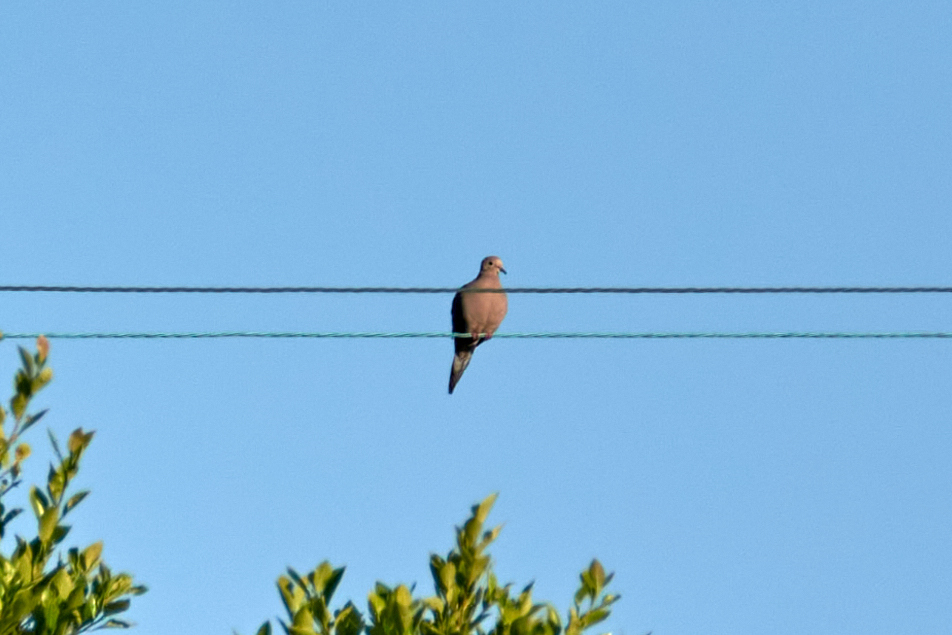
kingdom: Animalia
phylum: Chordata
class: Aves
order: Columbiformes
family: Columbidae
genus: Zenaida
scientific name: Zenaida macroura
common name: Mourning dove
